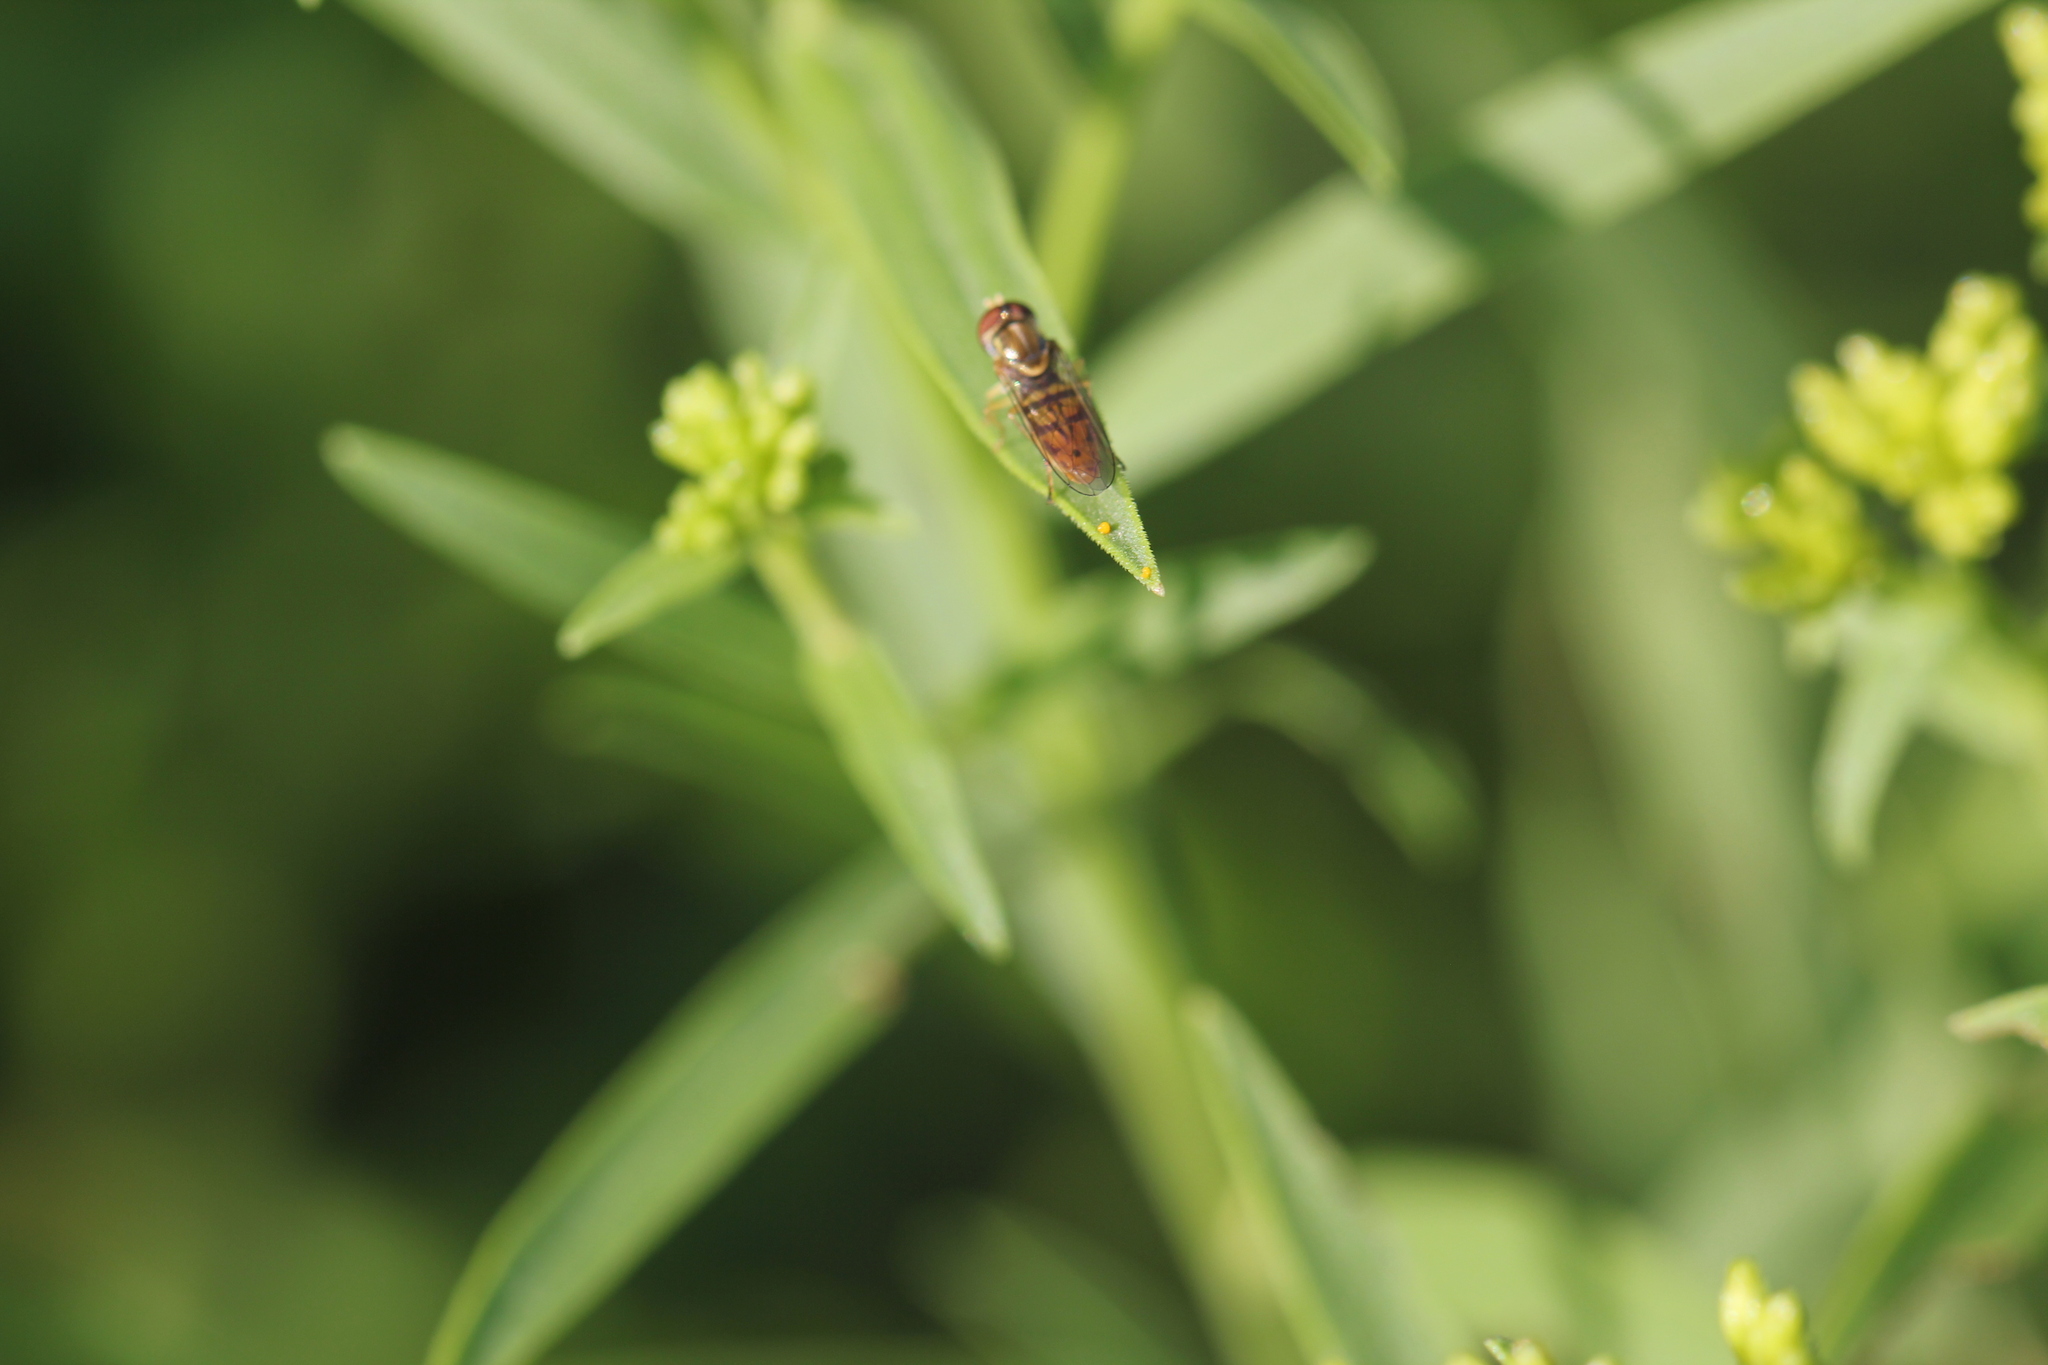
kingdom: Animalia
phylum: Arthropoda
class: Insecta
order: Diptera
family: Syrphidae
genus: Toxomerus
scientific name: Toxomerus marginatus
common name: Syrphid fly
